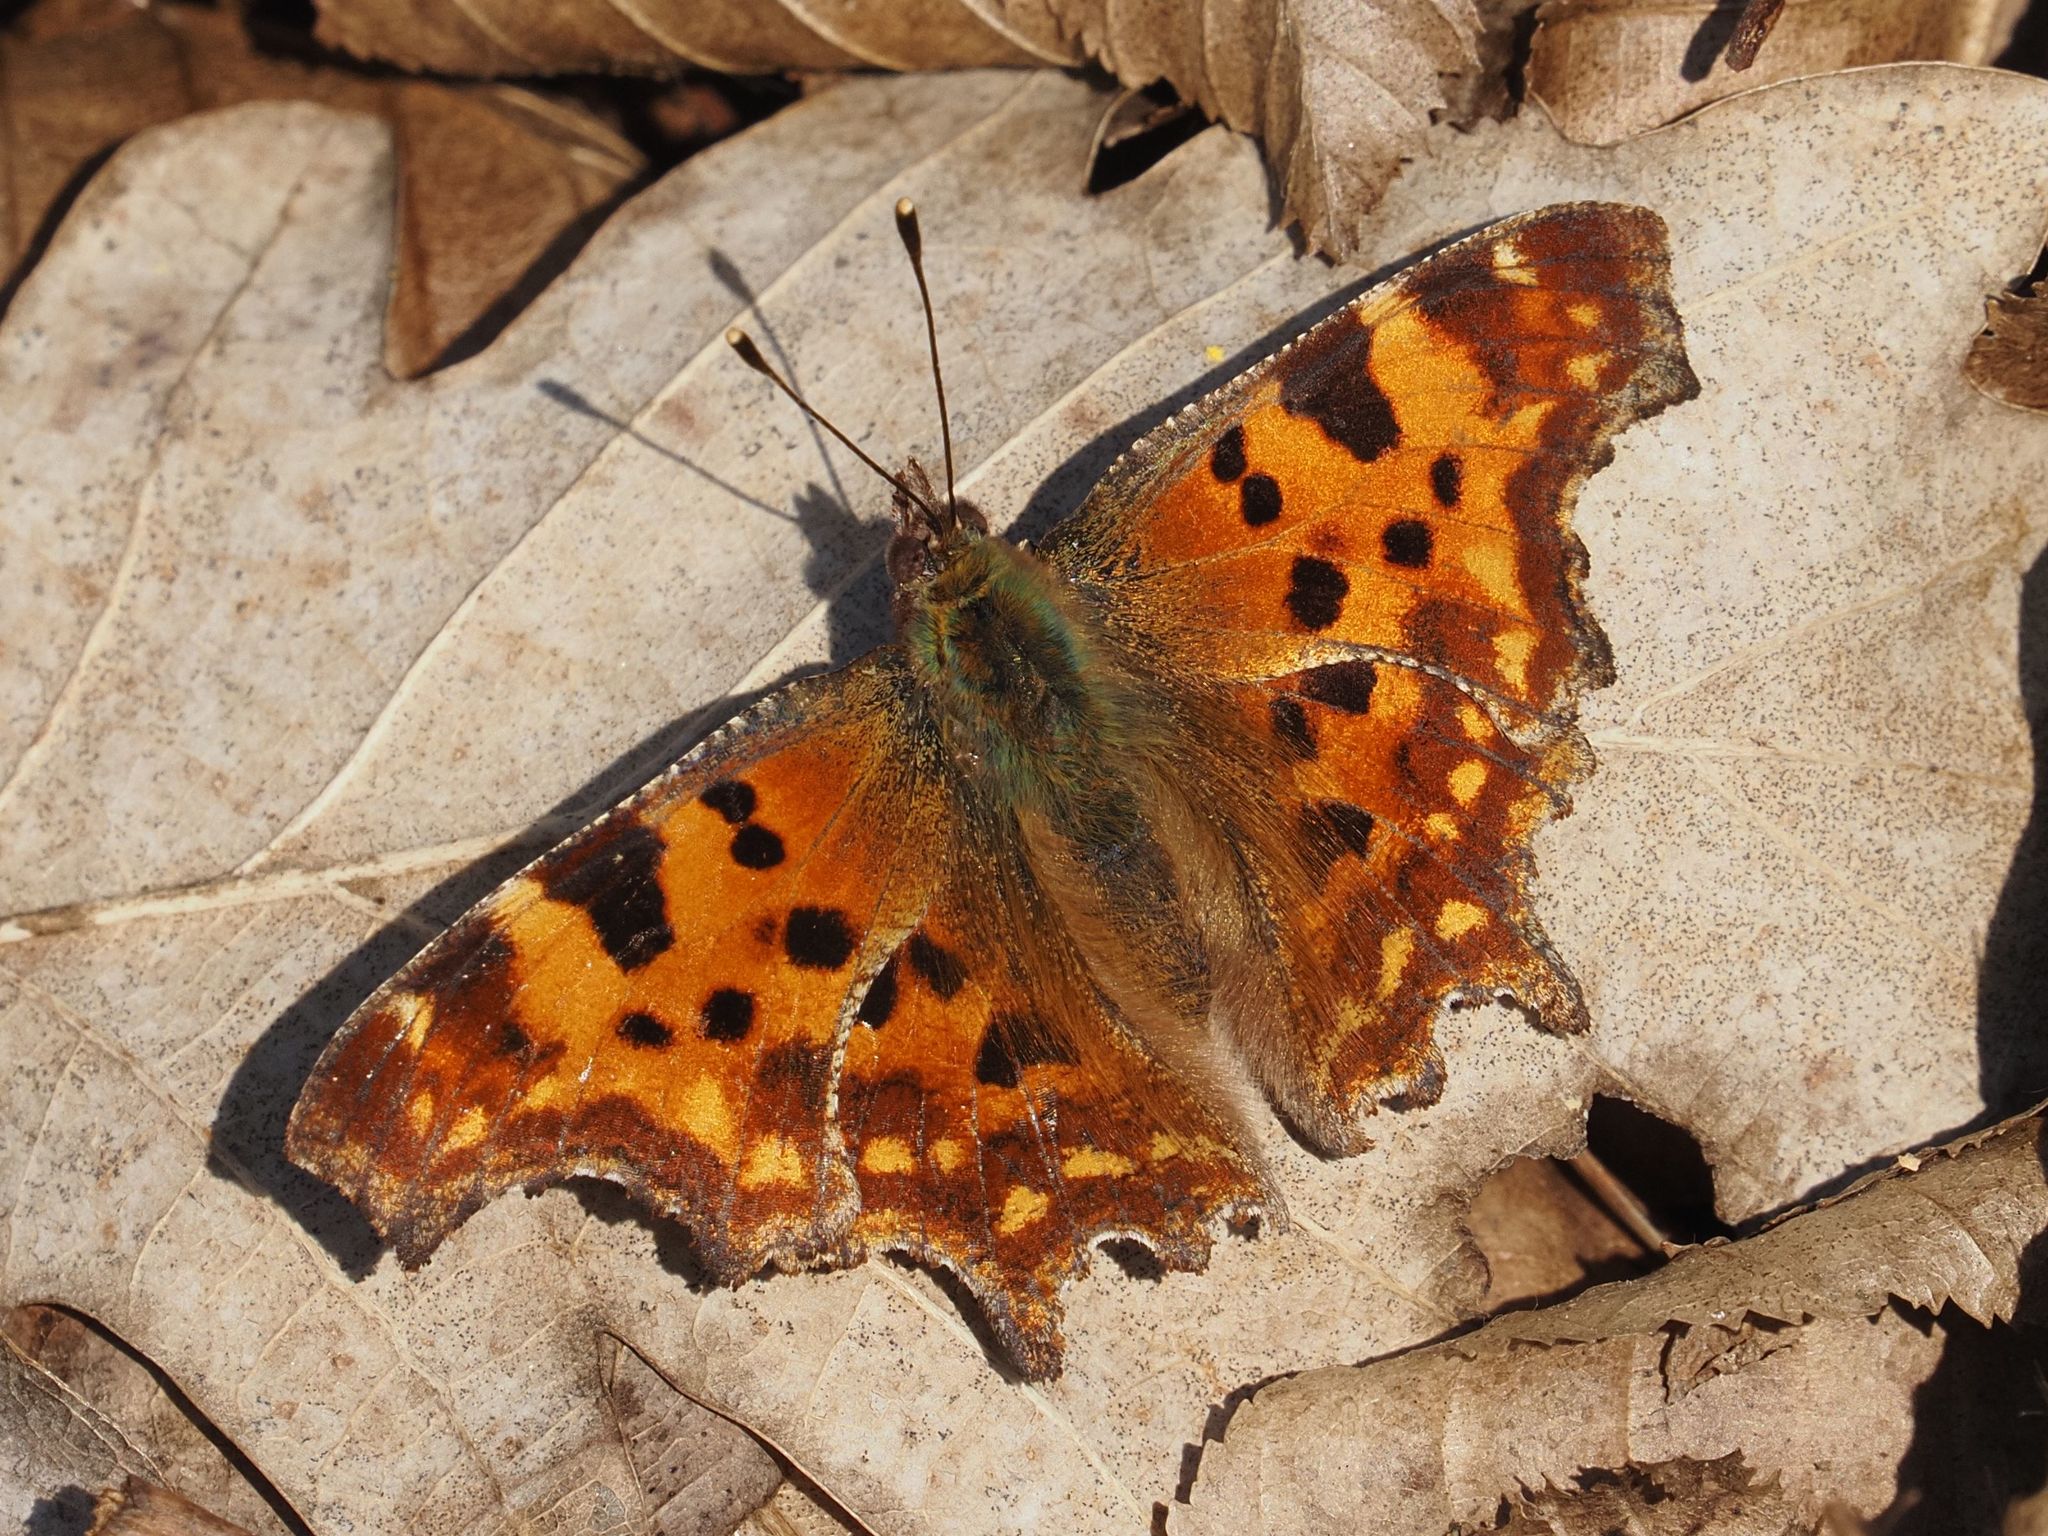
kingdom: Animalia
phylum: Arthropoda
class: Insecta
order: Lepidoptera
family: Nymphalidae
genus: Polygonia
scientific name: Polygonia c-album
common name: Comma
